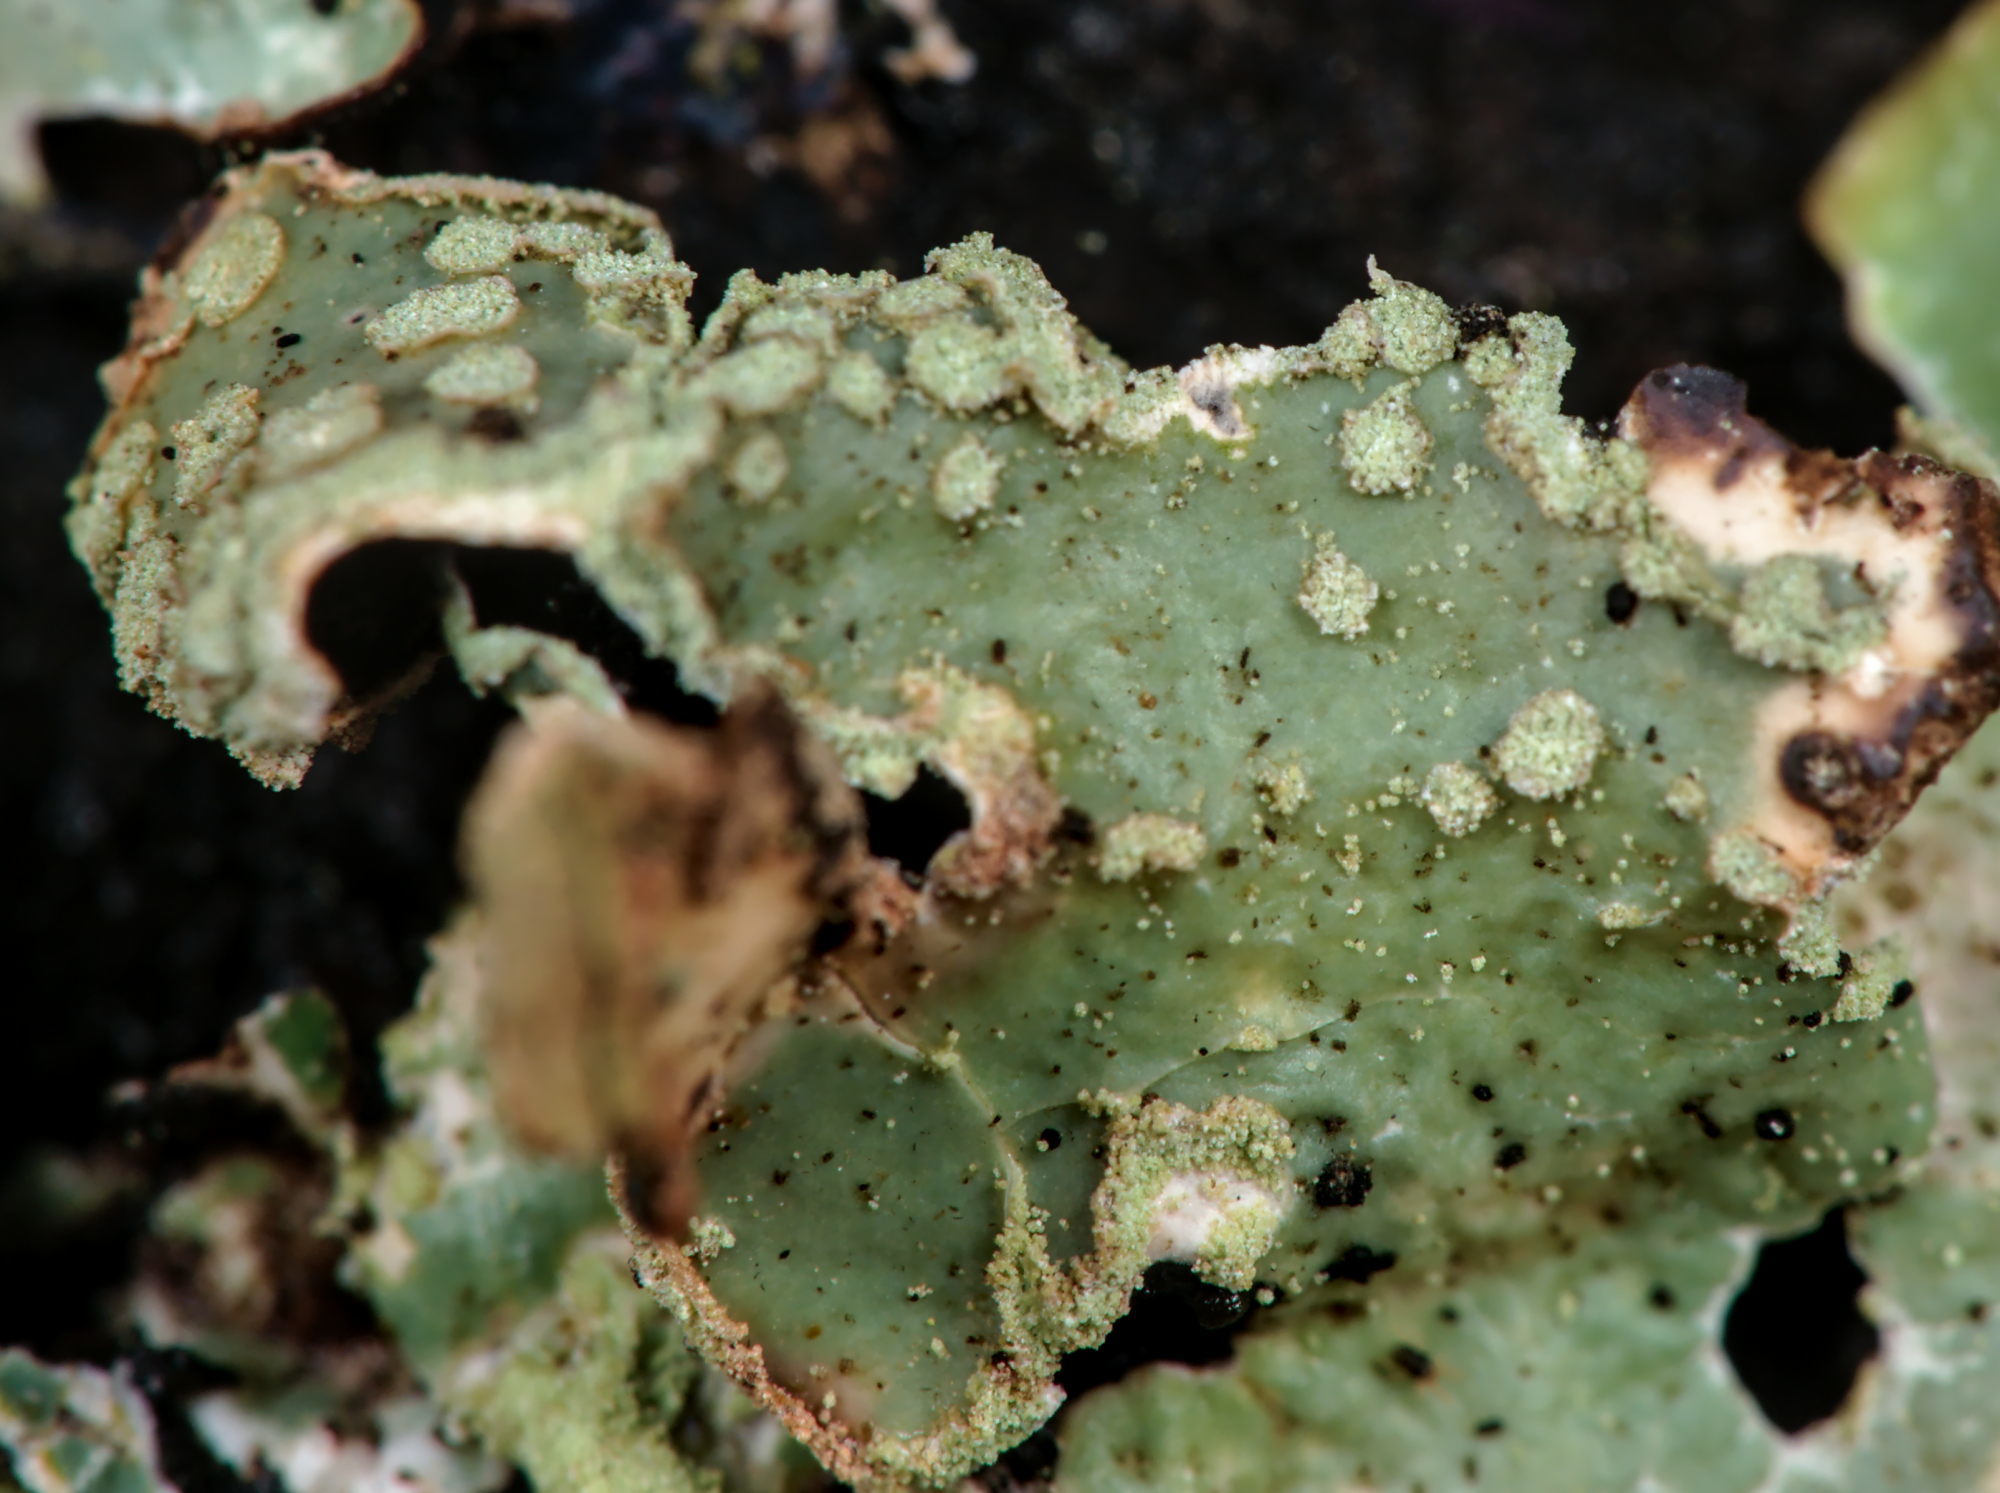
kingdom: Fungi
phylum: Ascomycota
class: Lecanoromycetes
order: Lecanorales
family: Parmeliaceae
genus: Parmelia
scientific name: Parmelia sulcata
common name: Netted shield lichen
